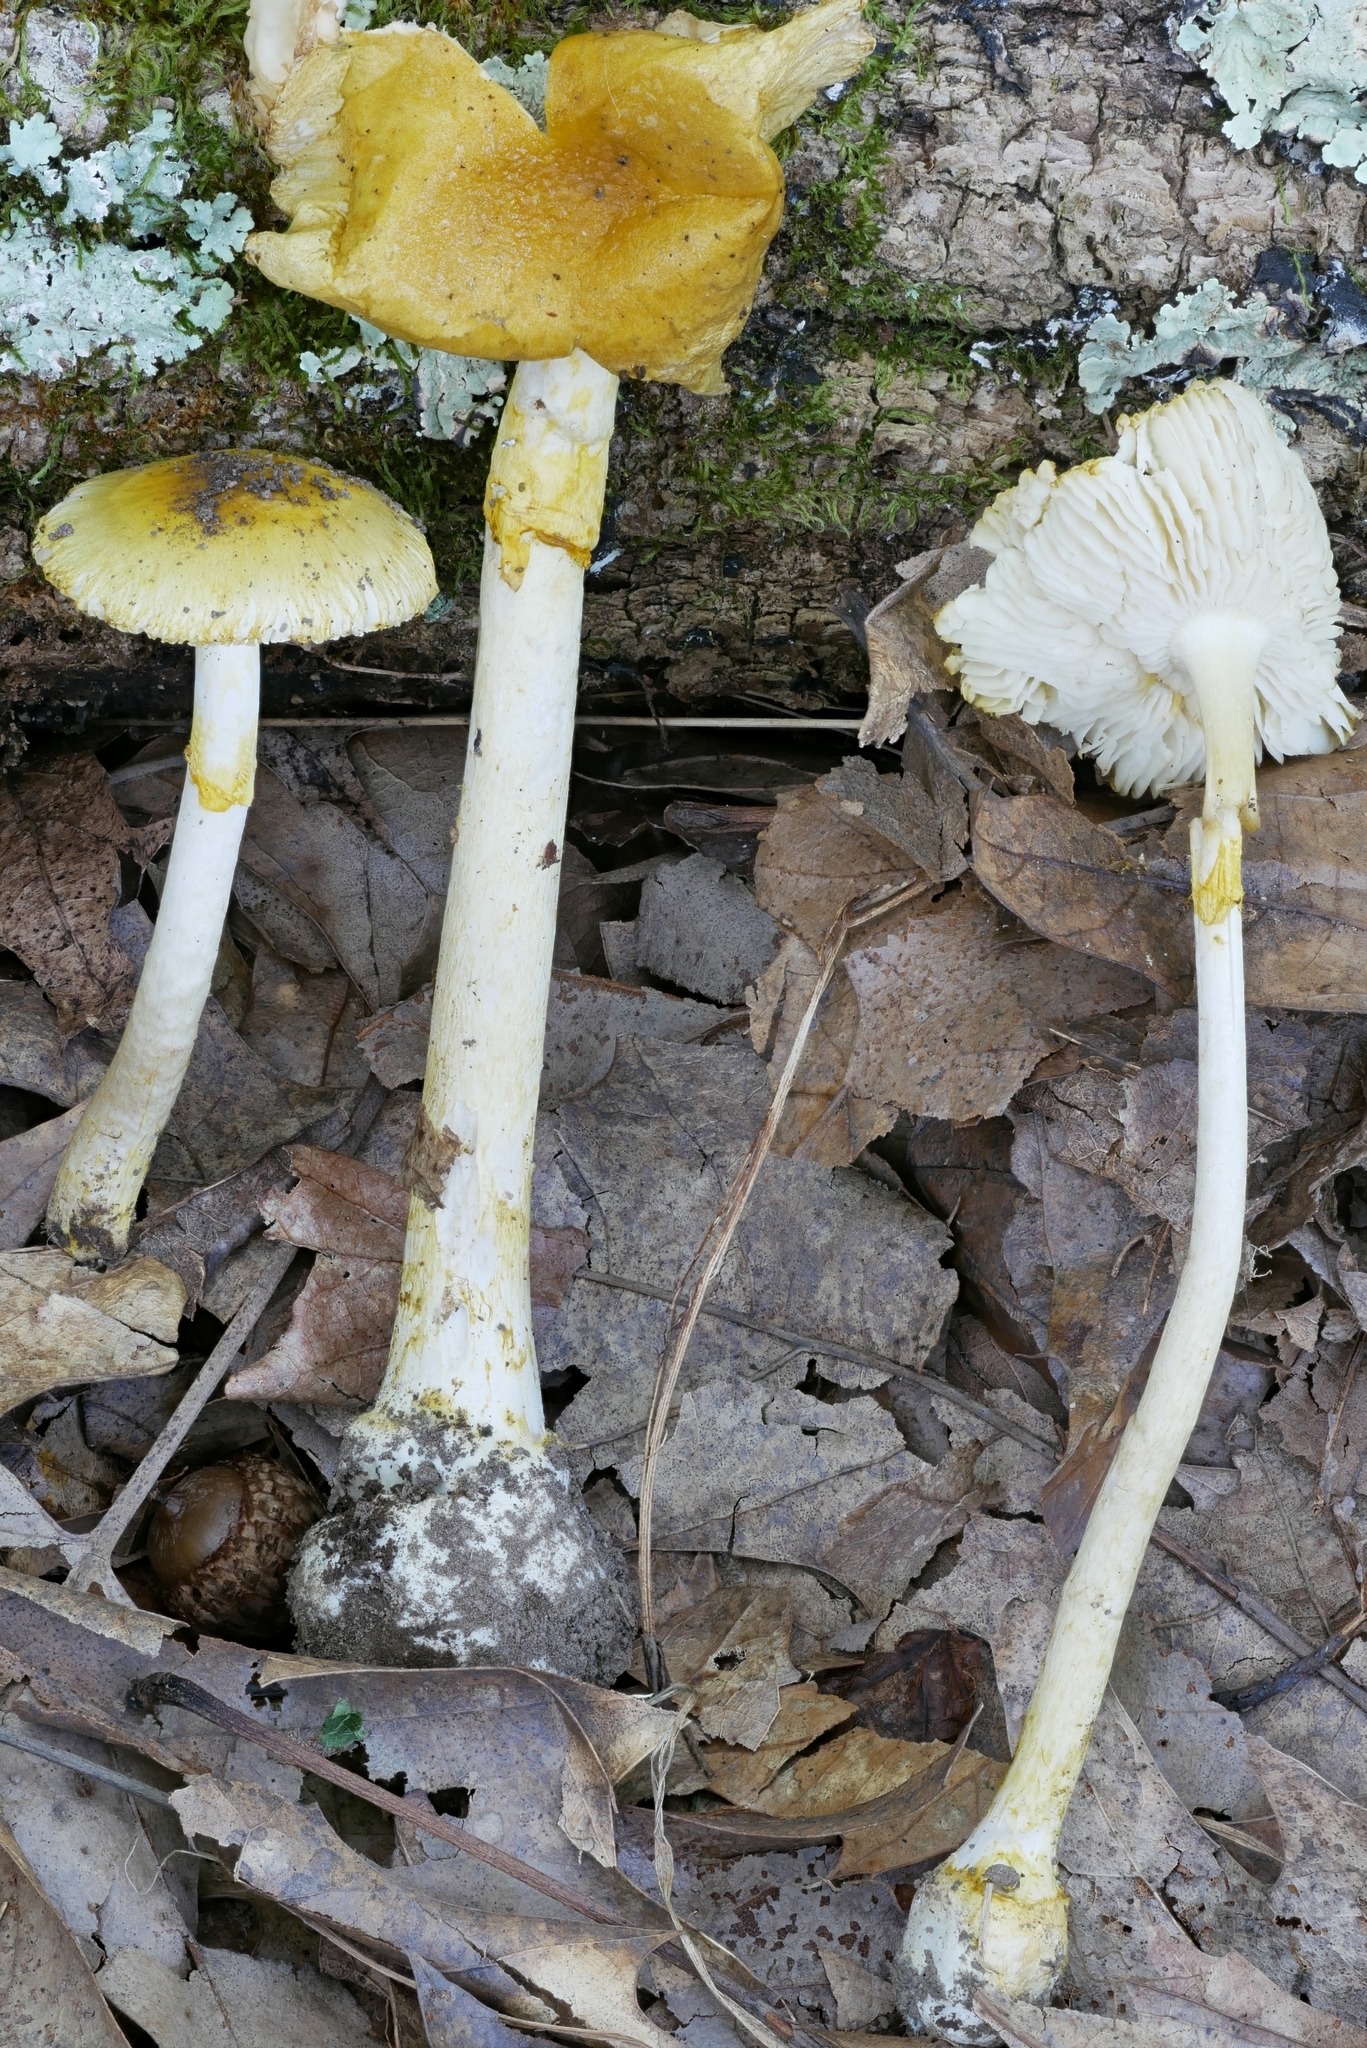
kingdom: Fungi
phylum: Basidiomycota
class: Agaricomycetes
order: Agaricales
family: Amanitaceae
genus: Amanita
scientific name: Amanita levistriata
